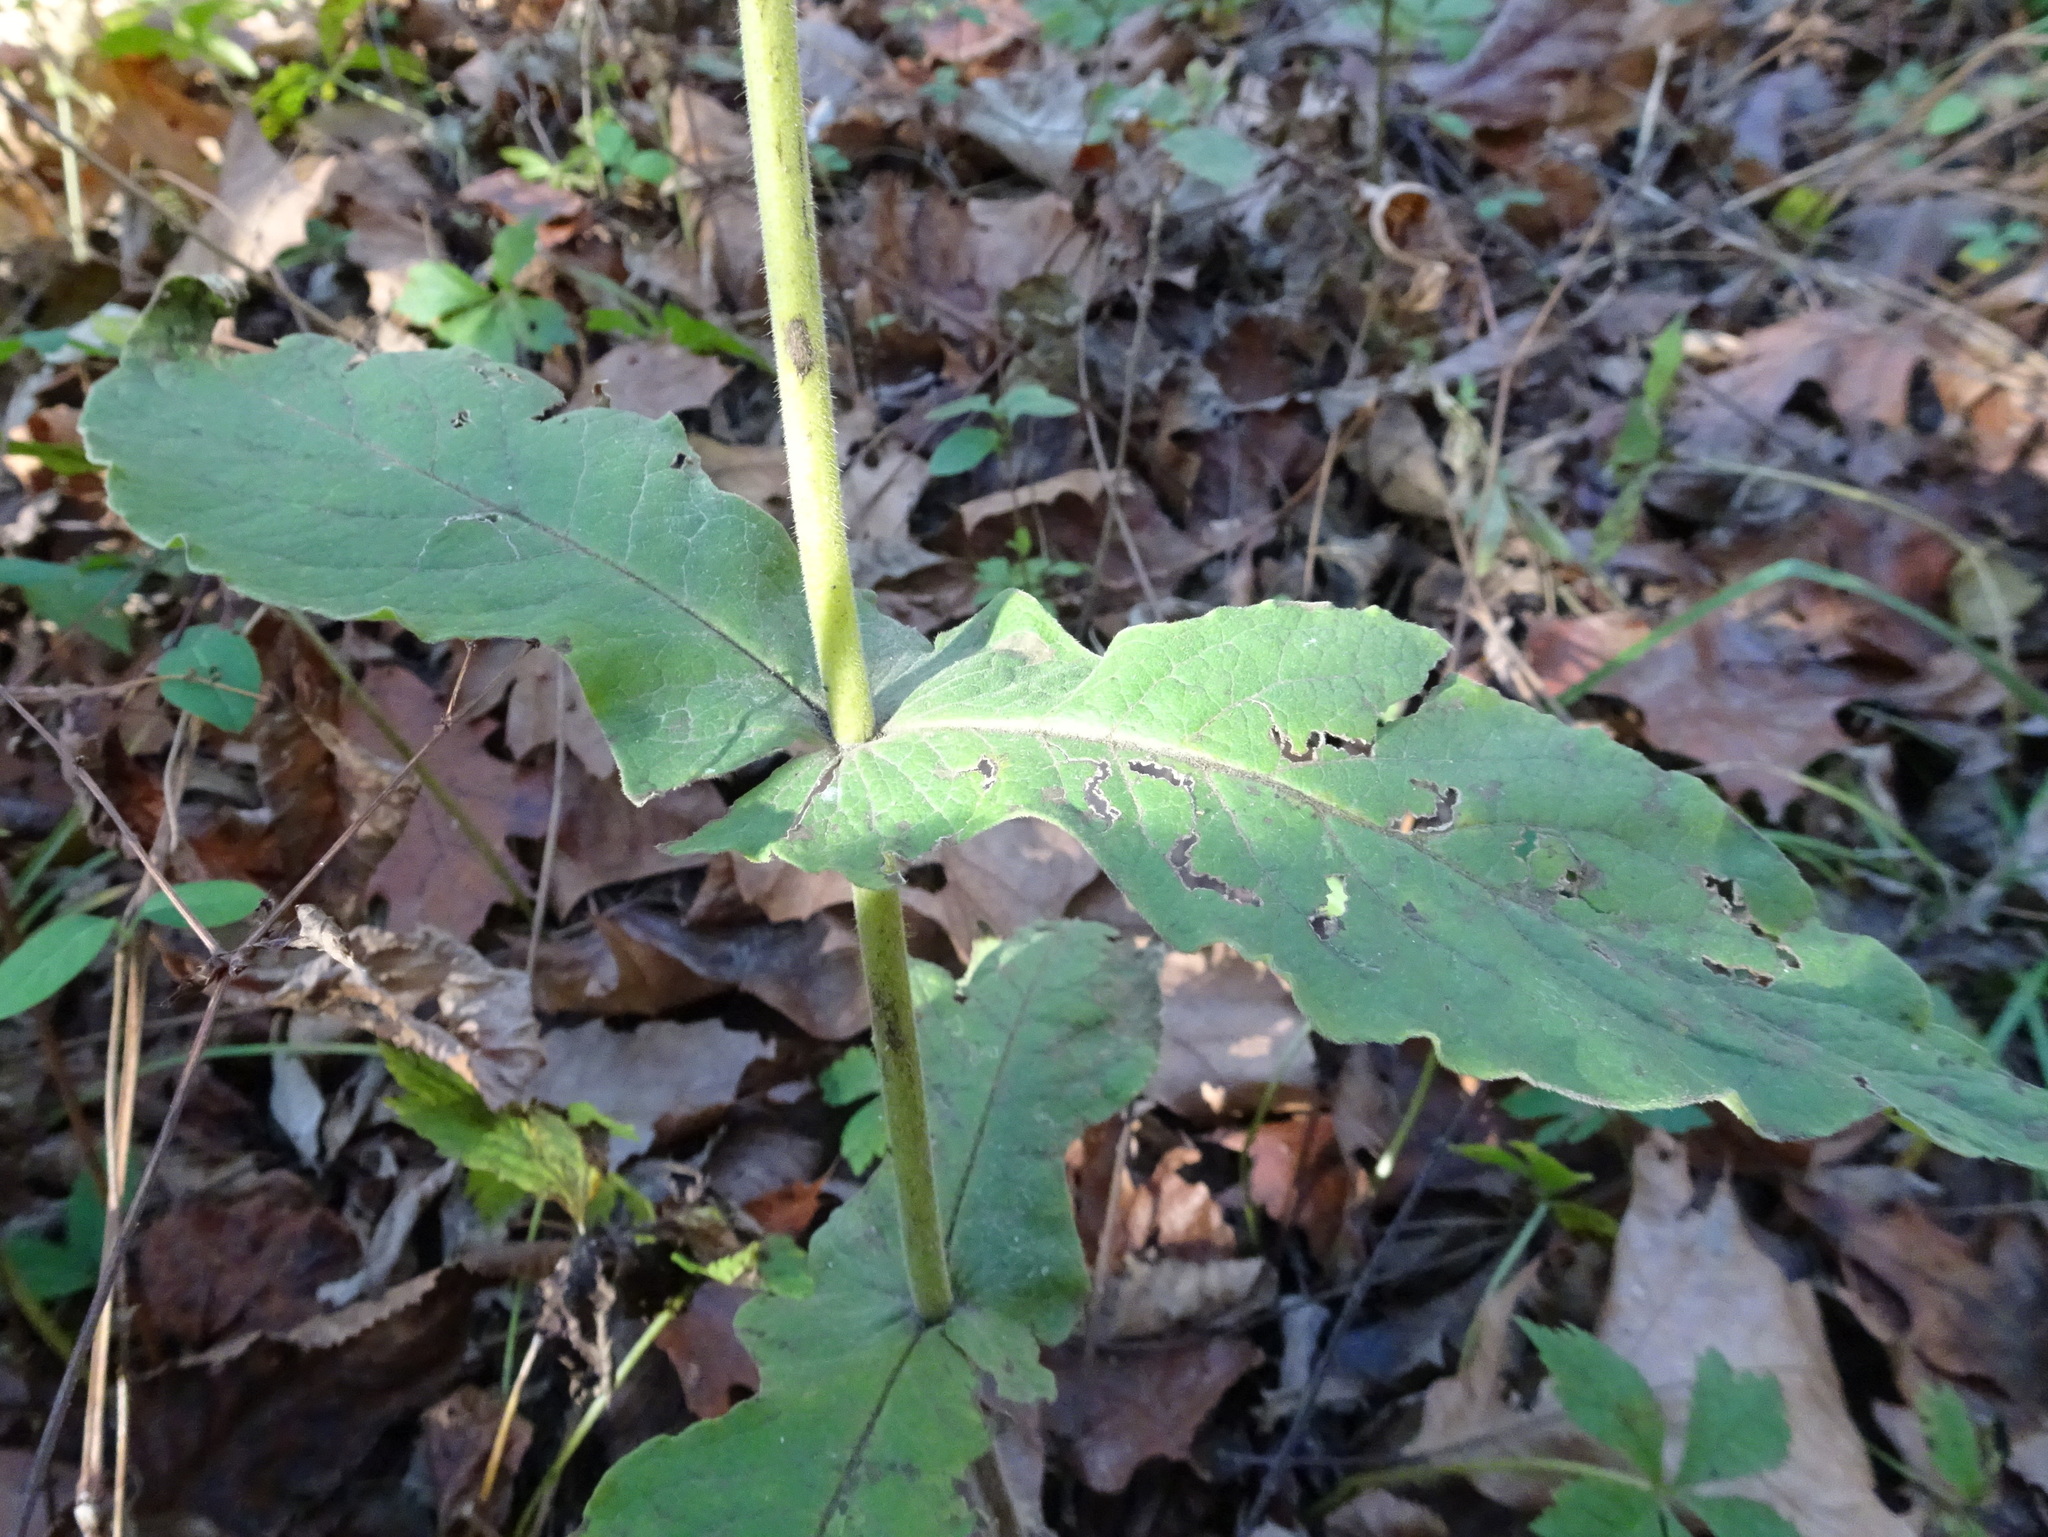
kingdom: Plantae
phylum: Tracheophyta
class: Magnoliopsida
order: Dipsacales
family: Caprifoliaceae
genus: Triosteum
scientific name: Triosteum perfoliatum
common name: Common horse-gentian
